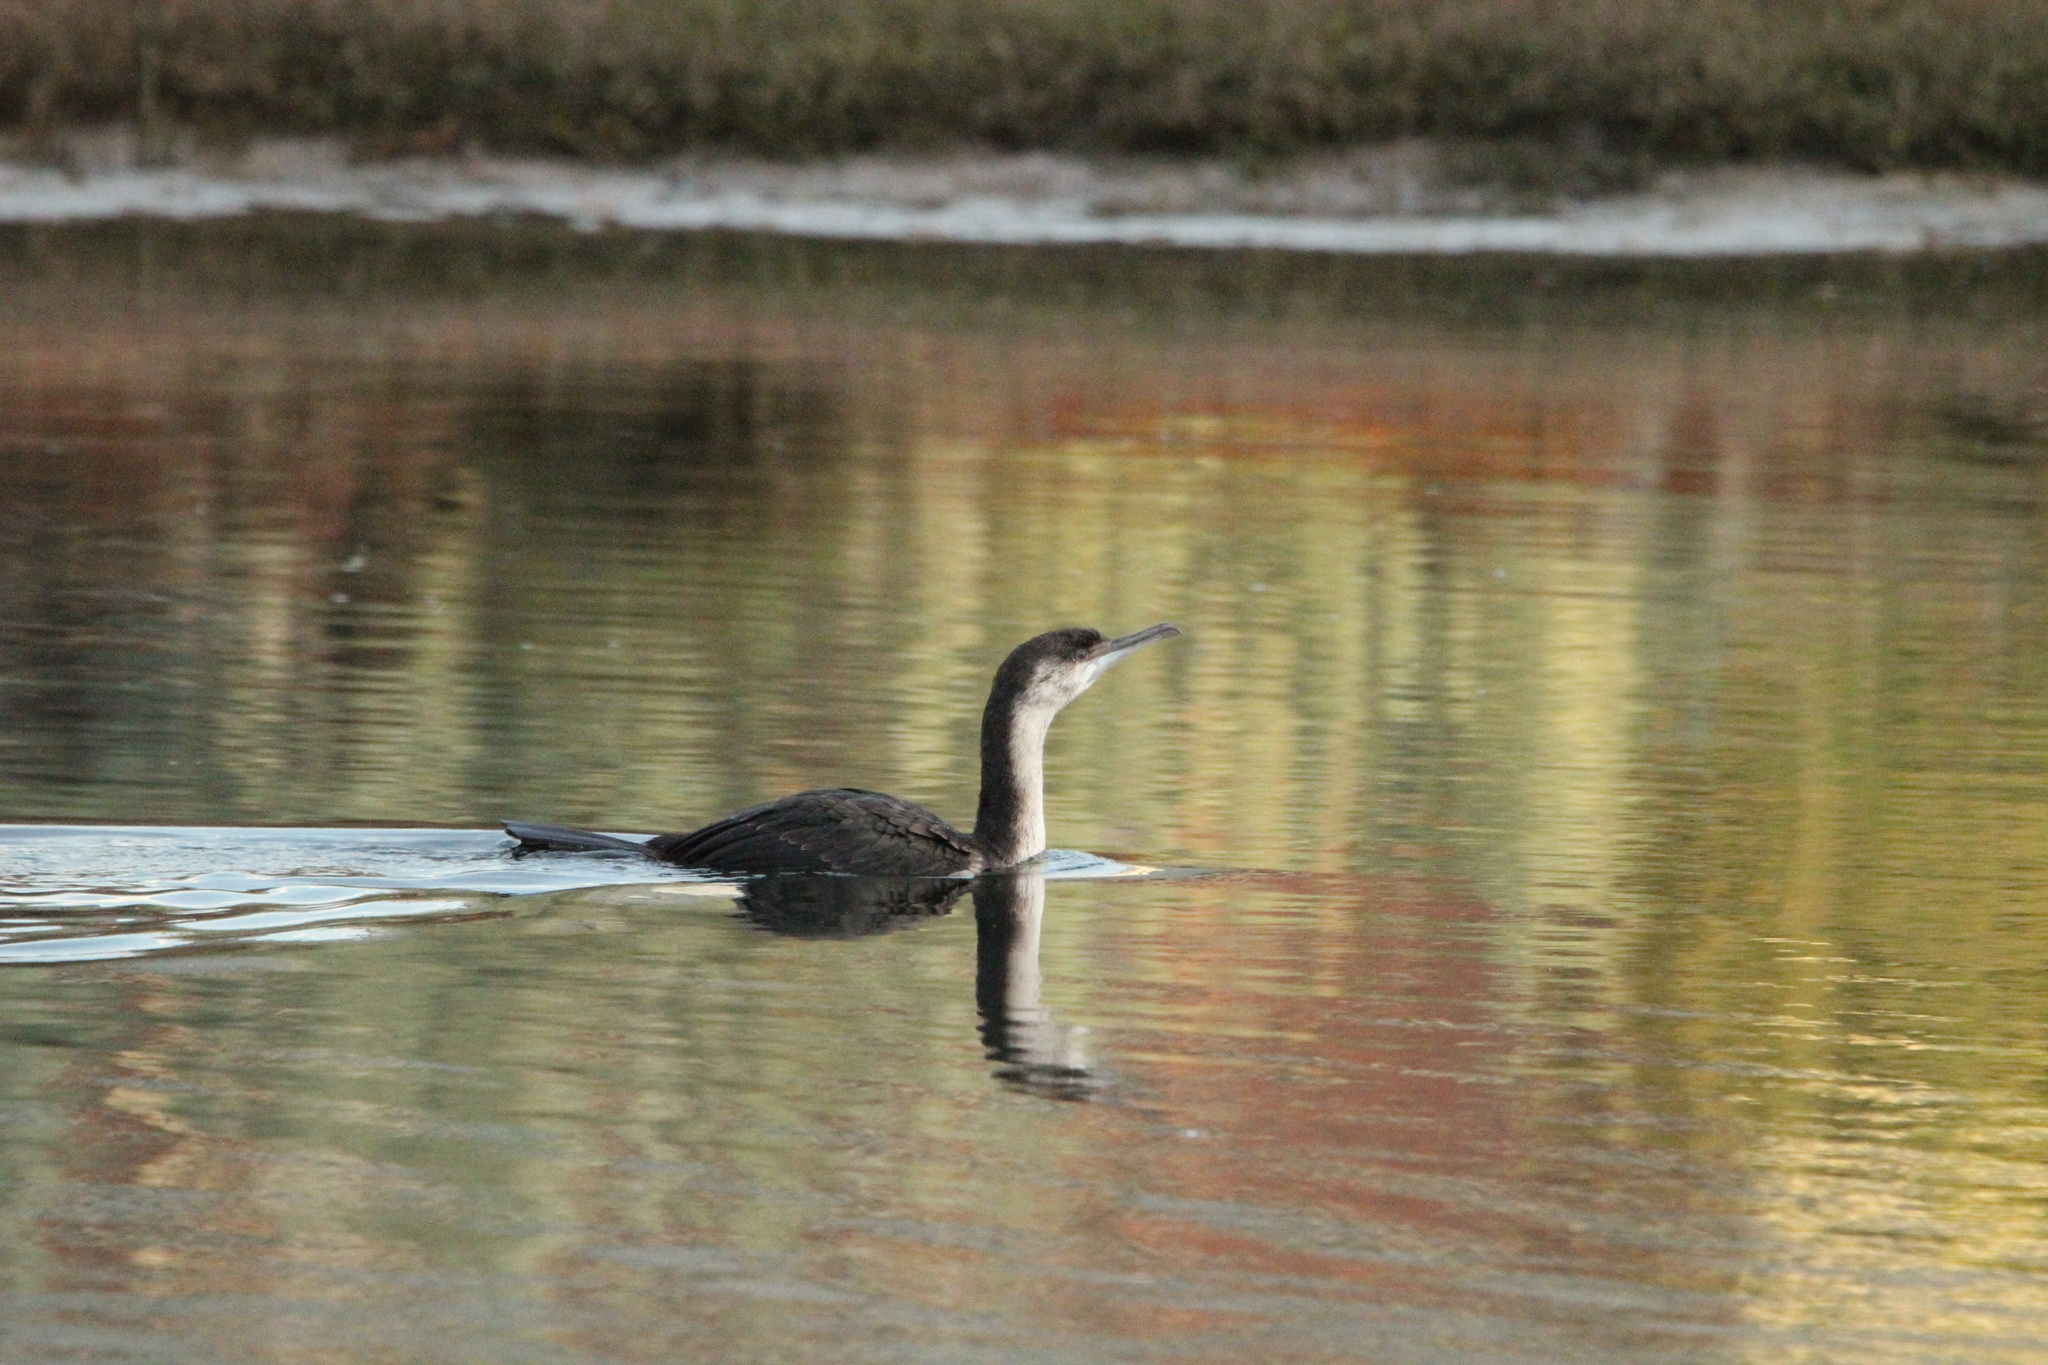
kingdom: Animalia
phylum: Chordata
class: Aves
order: Suliformes
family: Phalacrocoracidae
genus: Phalacrocorax
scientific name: Phalacrocorax fuscescens
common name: Black-faced cormorant
